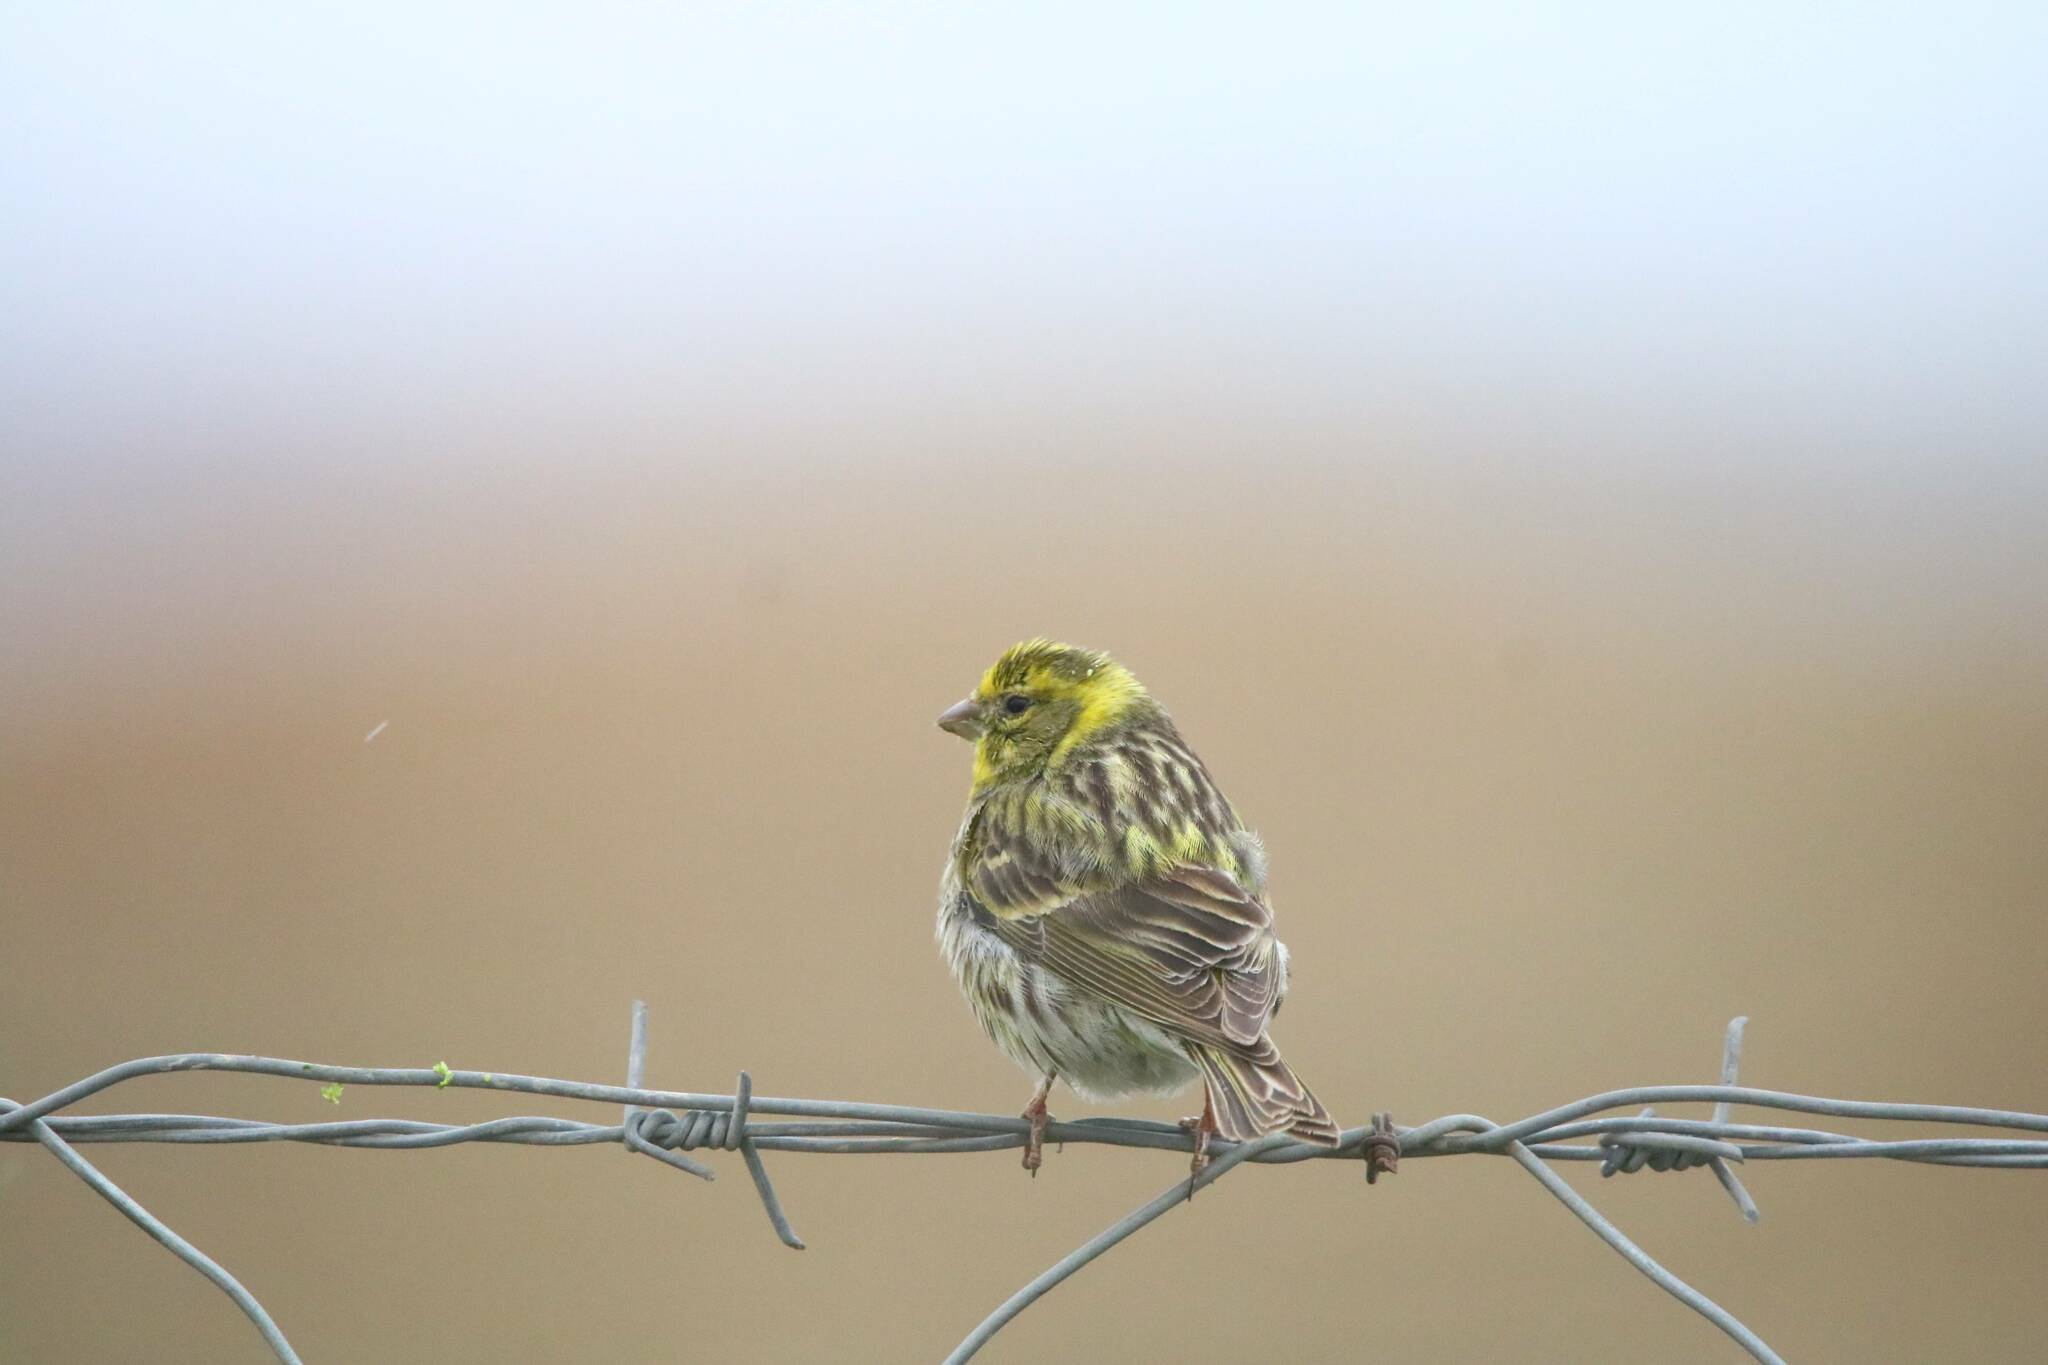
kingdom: Animalia
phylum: Chordata
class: Aves
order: Passeriformes
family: Fringillidae
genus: Serinus
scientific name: Serinus serinus
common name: European serin
